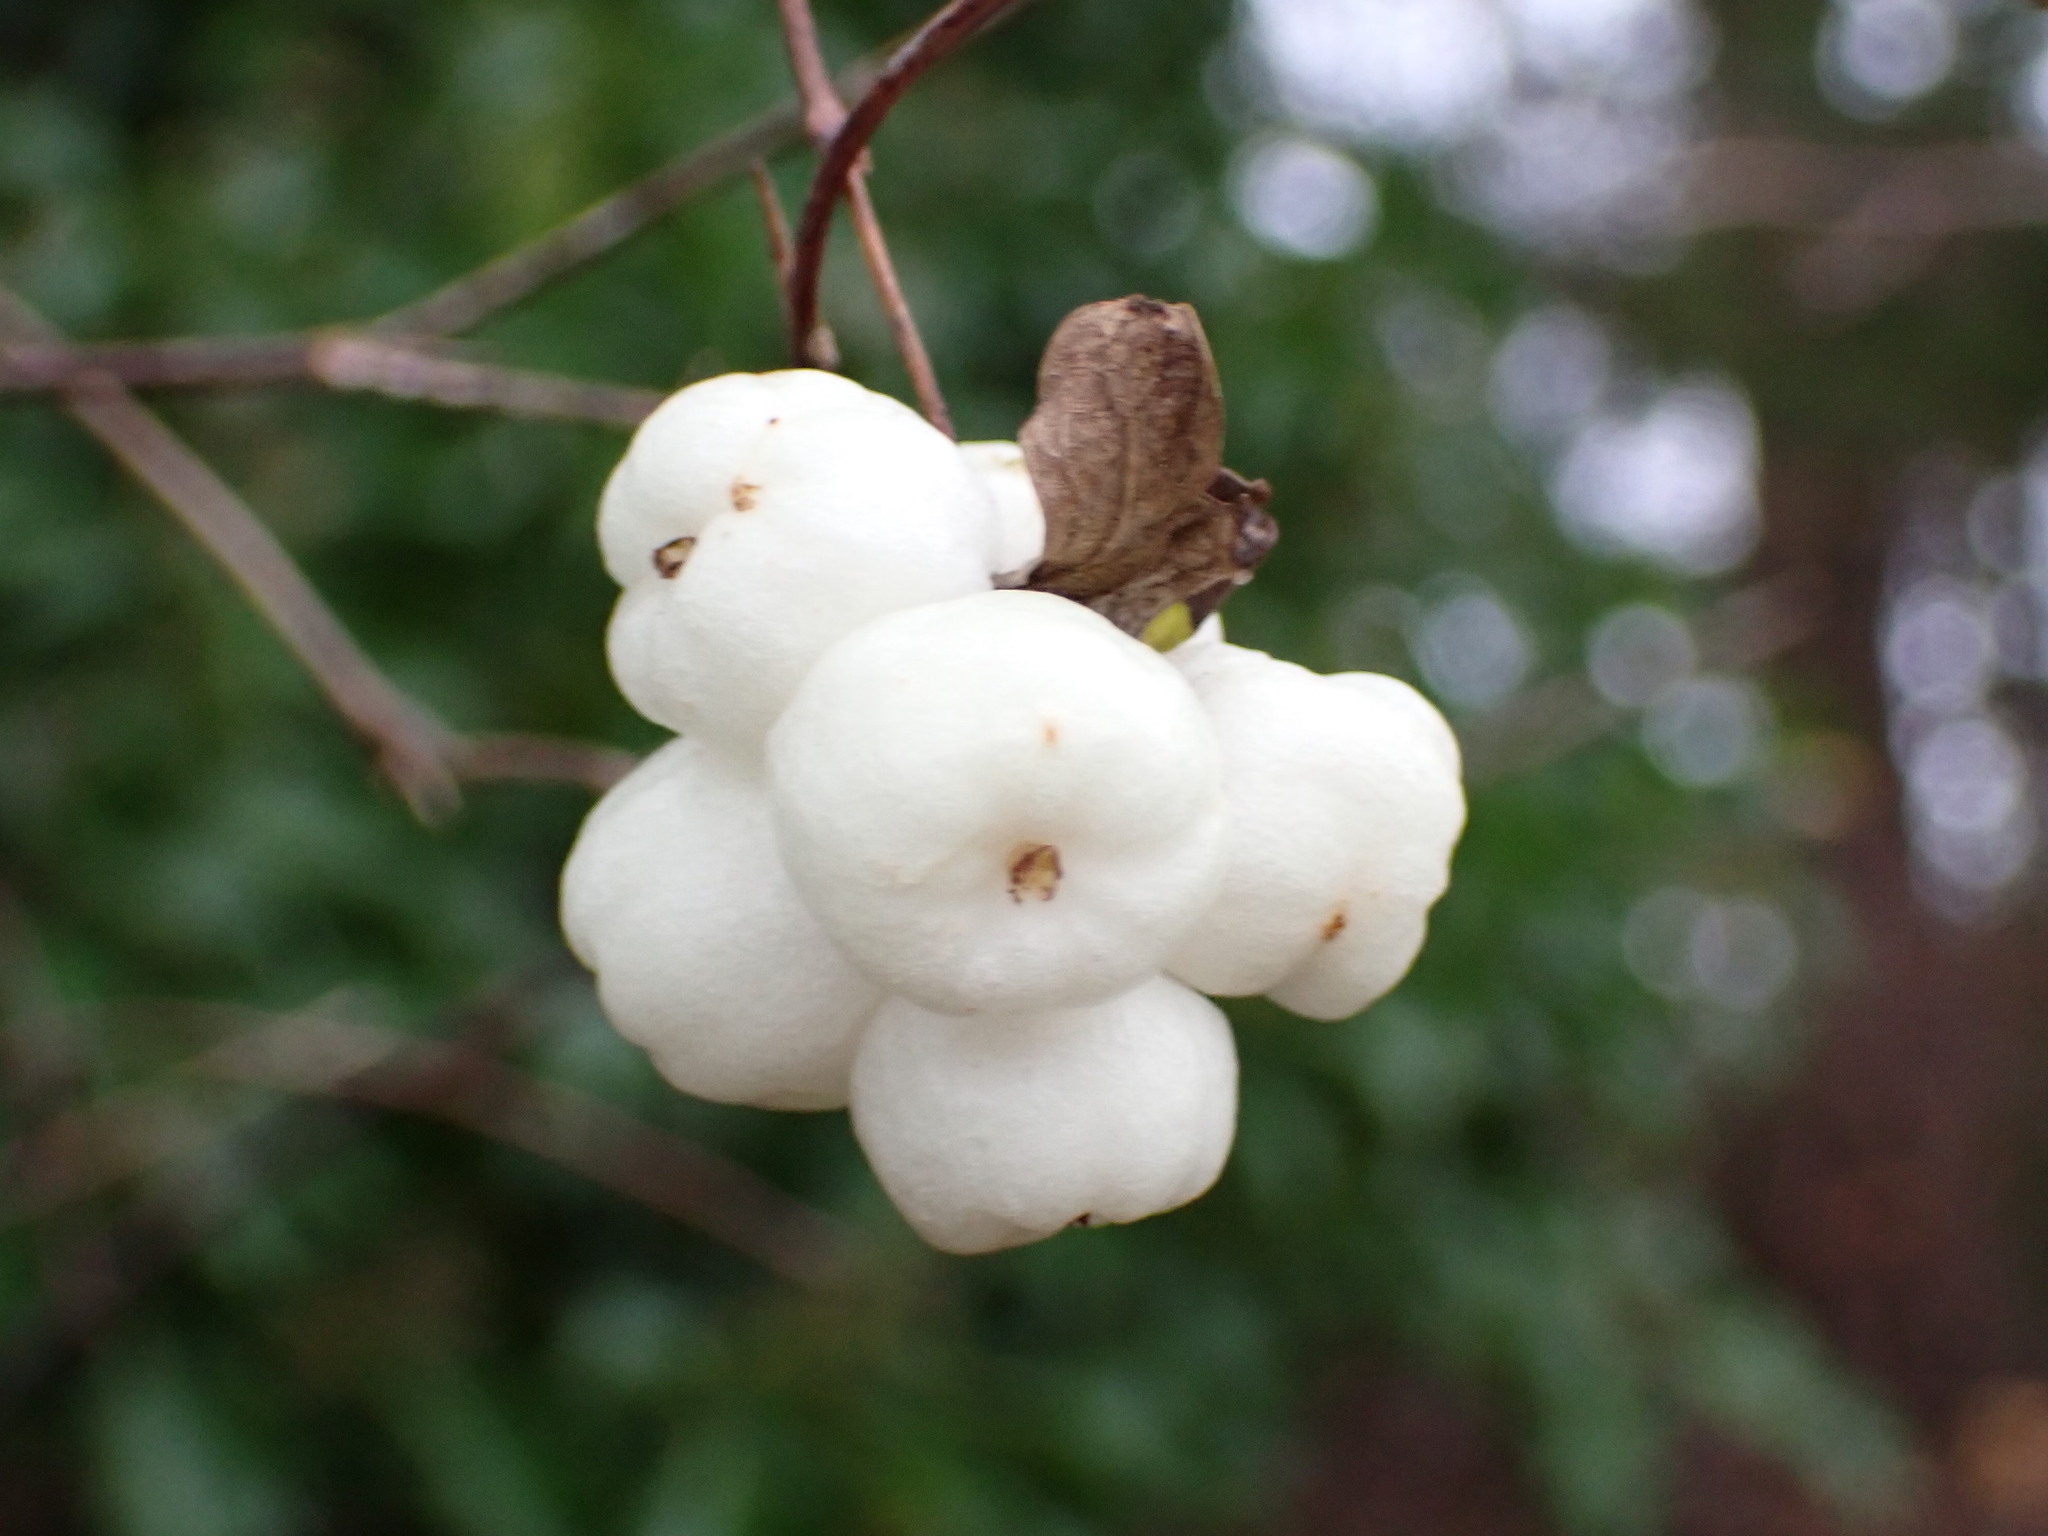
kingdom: Plantae
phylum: Tracheophyta
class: Magnoliopsida
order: Dipsacales
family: Caprifoliaceae
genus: Symphoricarpos
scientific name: Symphoricarpos albus
